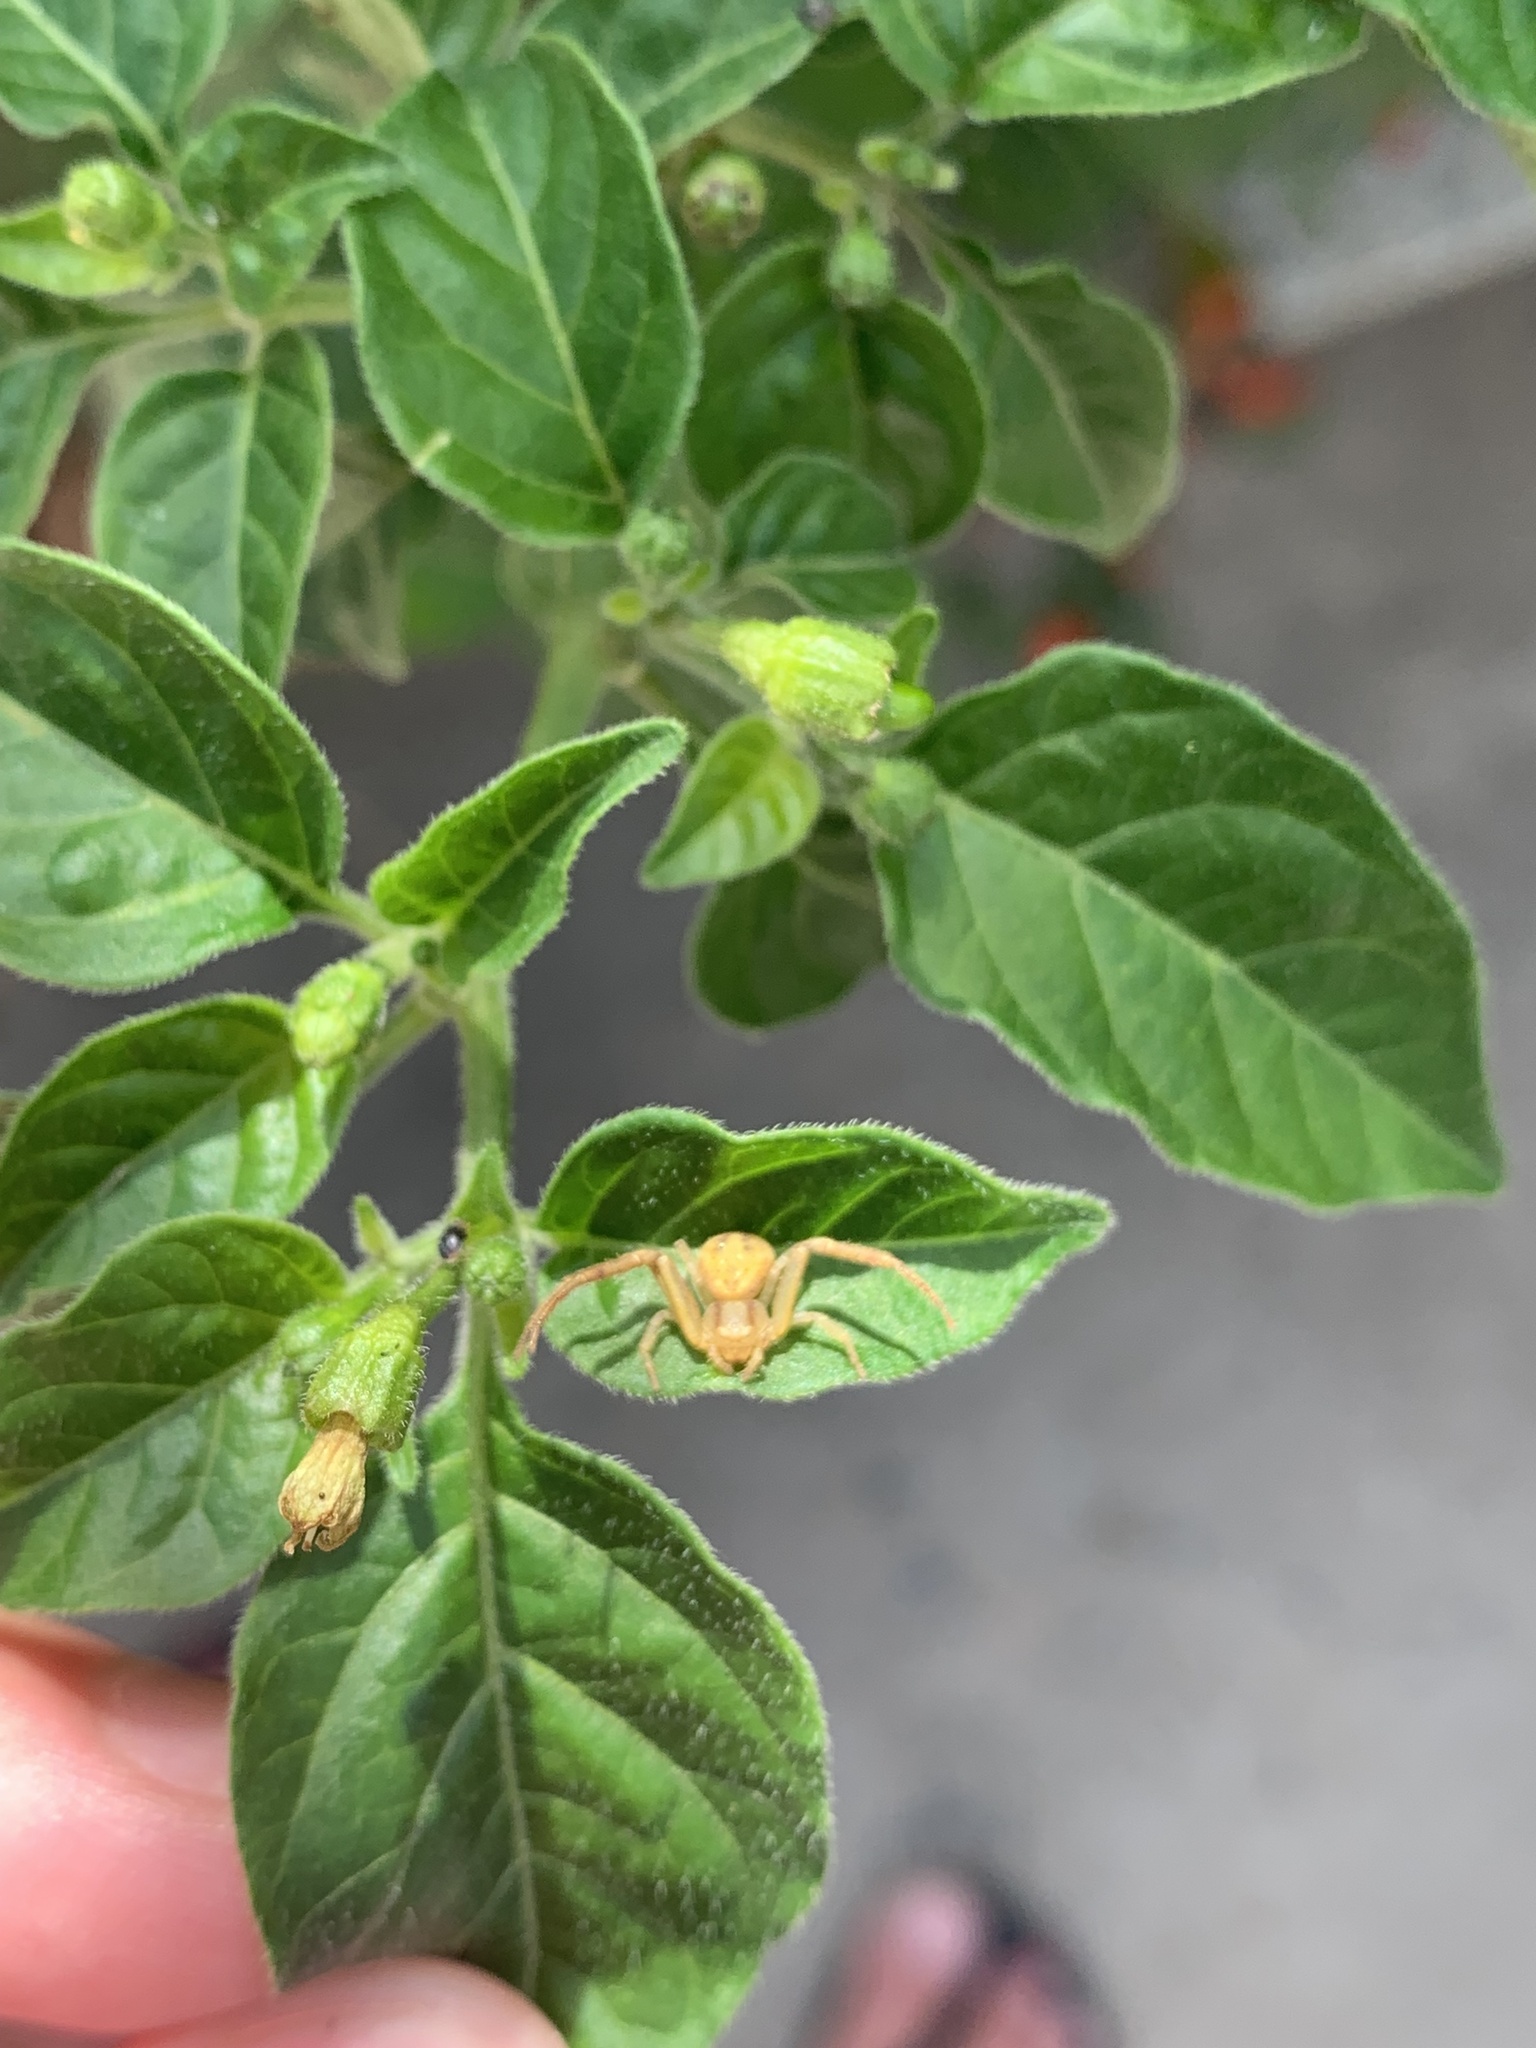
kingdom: Animalia
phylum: Arthropoda
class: Arachnida
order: Araneae
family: Thomisidae
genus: Misumenops
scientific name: Misumenops maculissparsus
